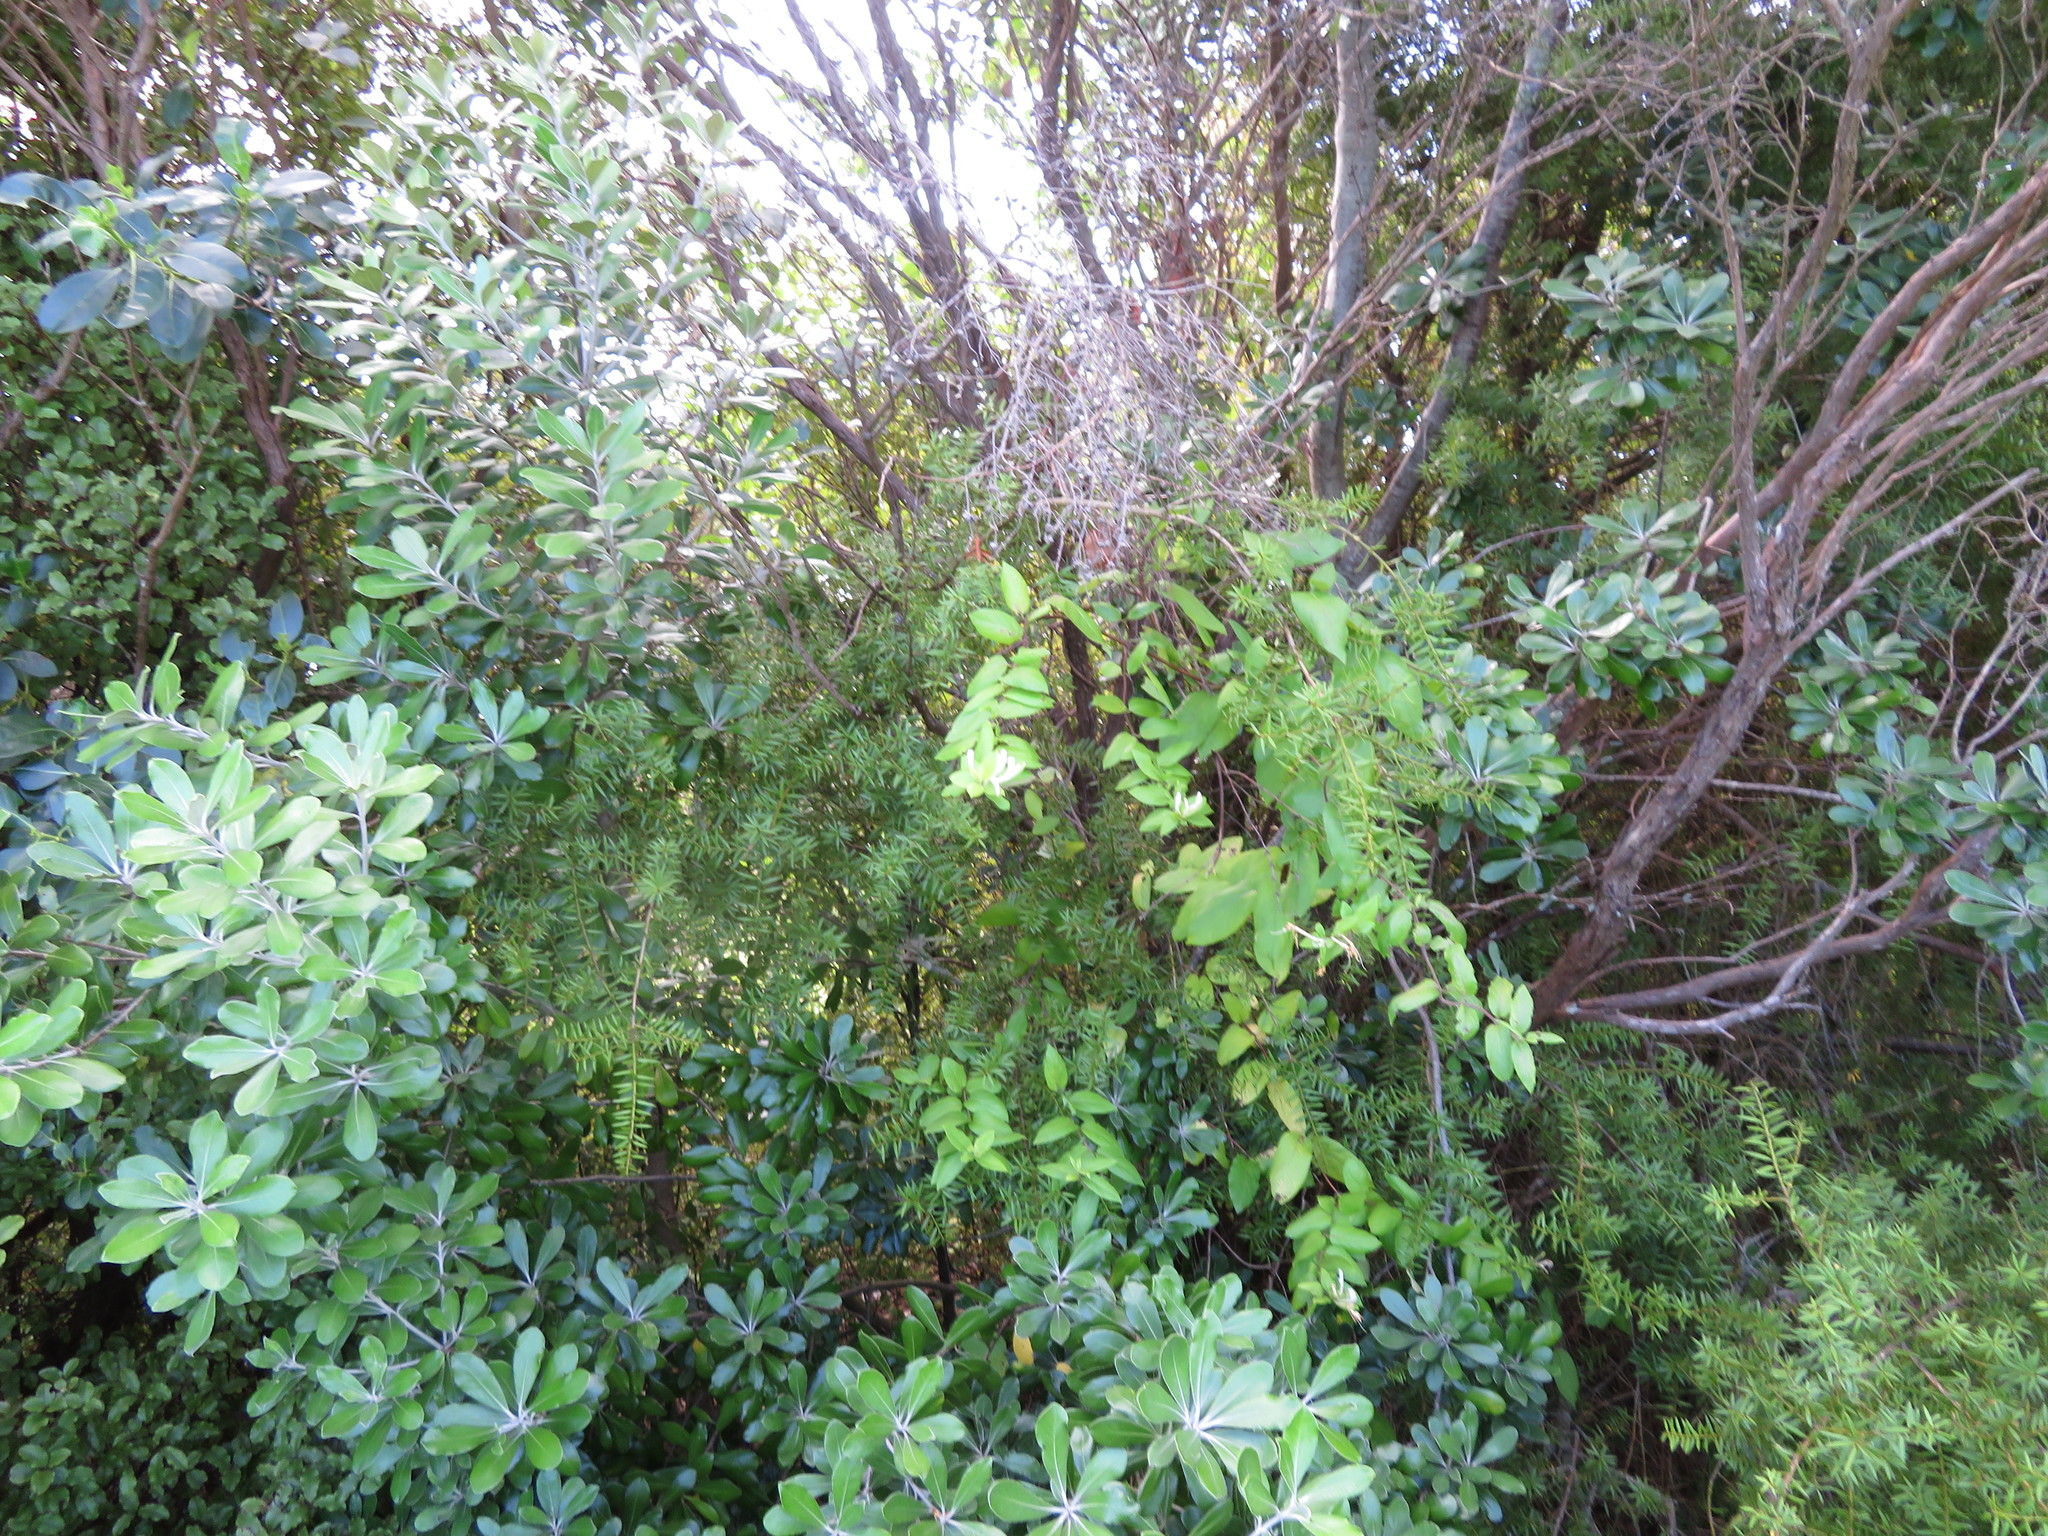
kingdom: Plantae
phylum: Tracheophyta
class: Magnoliopsida
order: Apiales
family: Pittosporaceae
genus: Pittosporum
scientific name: Pittosporum crassifolium
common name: Karo
